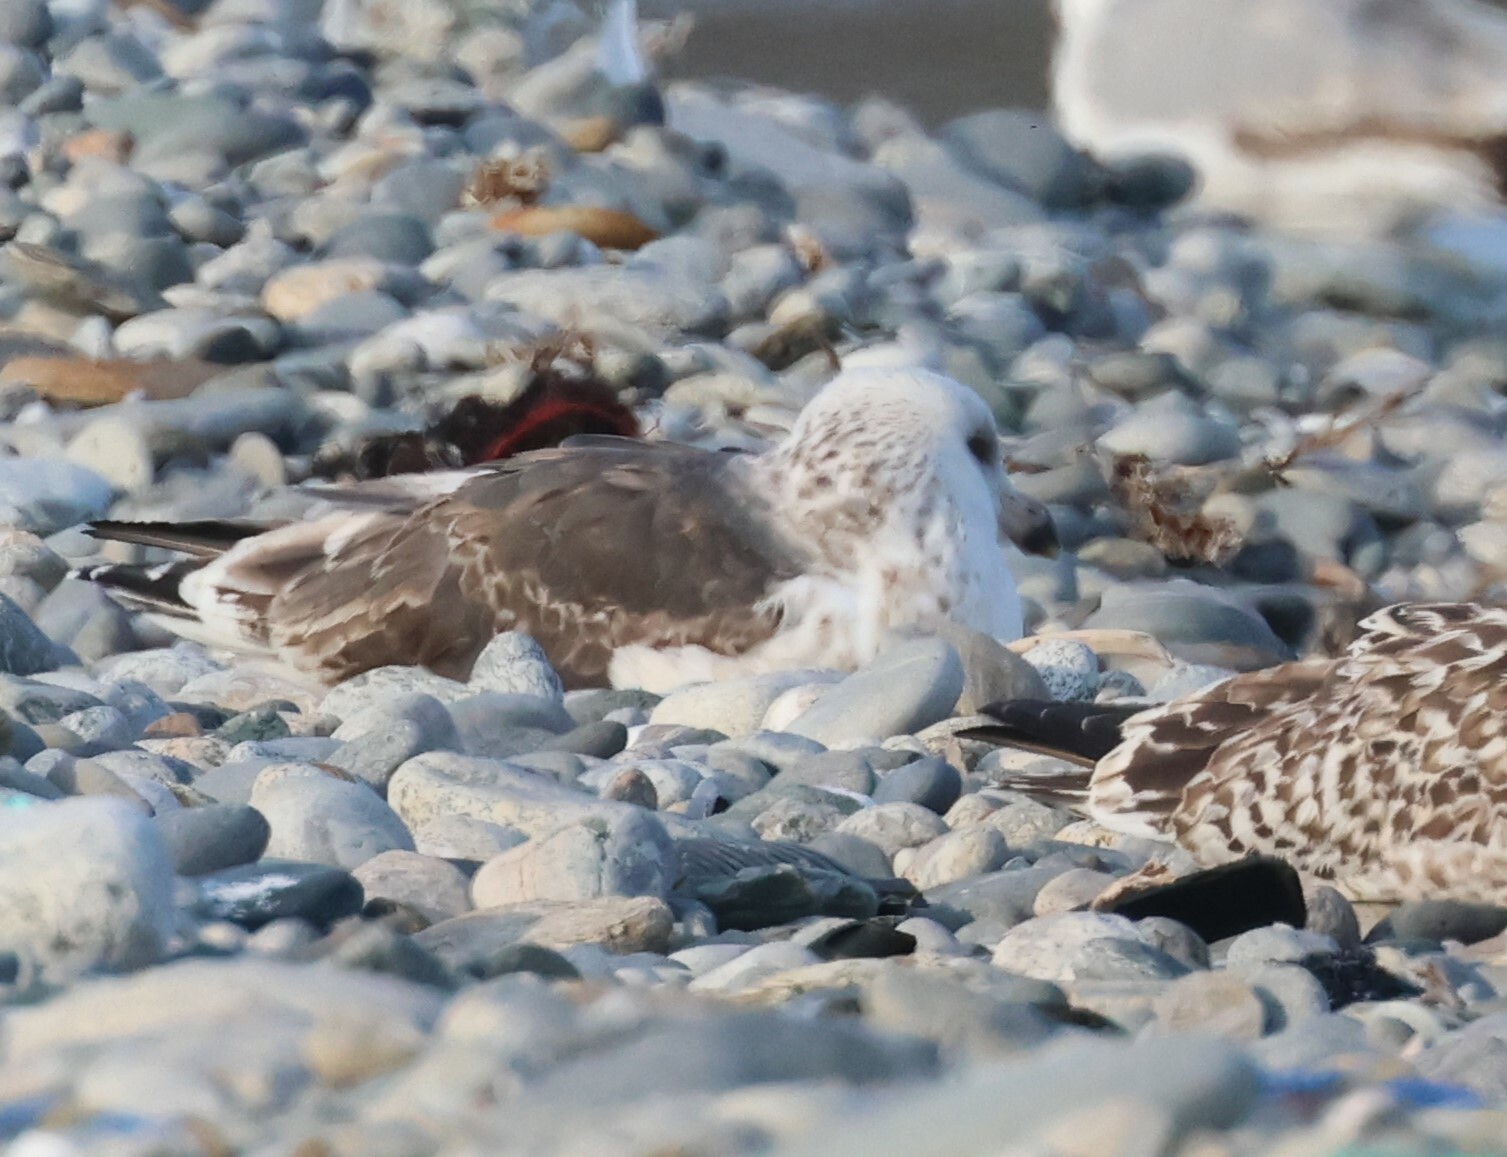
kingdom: Animalia
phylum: Chordata
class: Aves
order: Charadriiformes
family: Laridae
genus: Larus
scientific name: Larus fuscus
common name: Lesser black-backed gull
